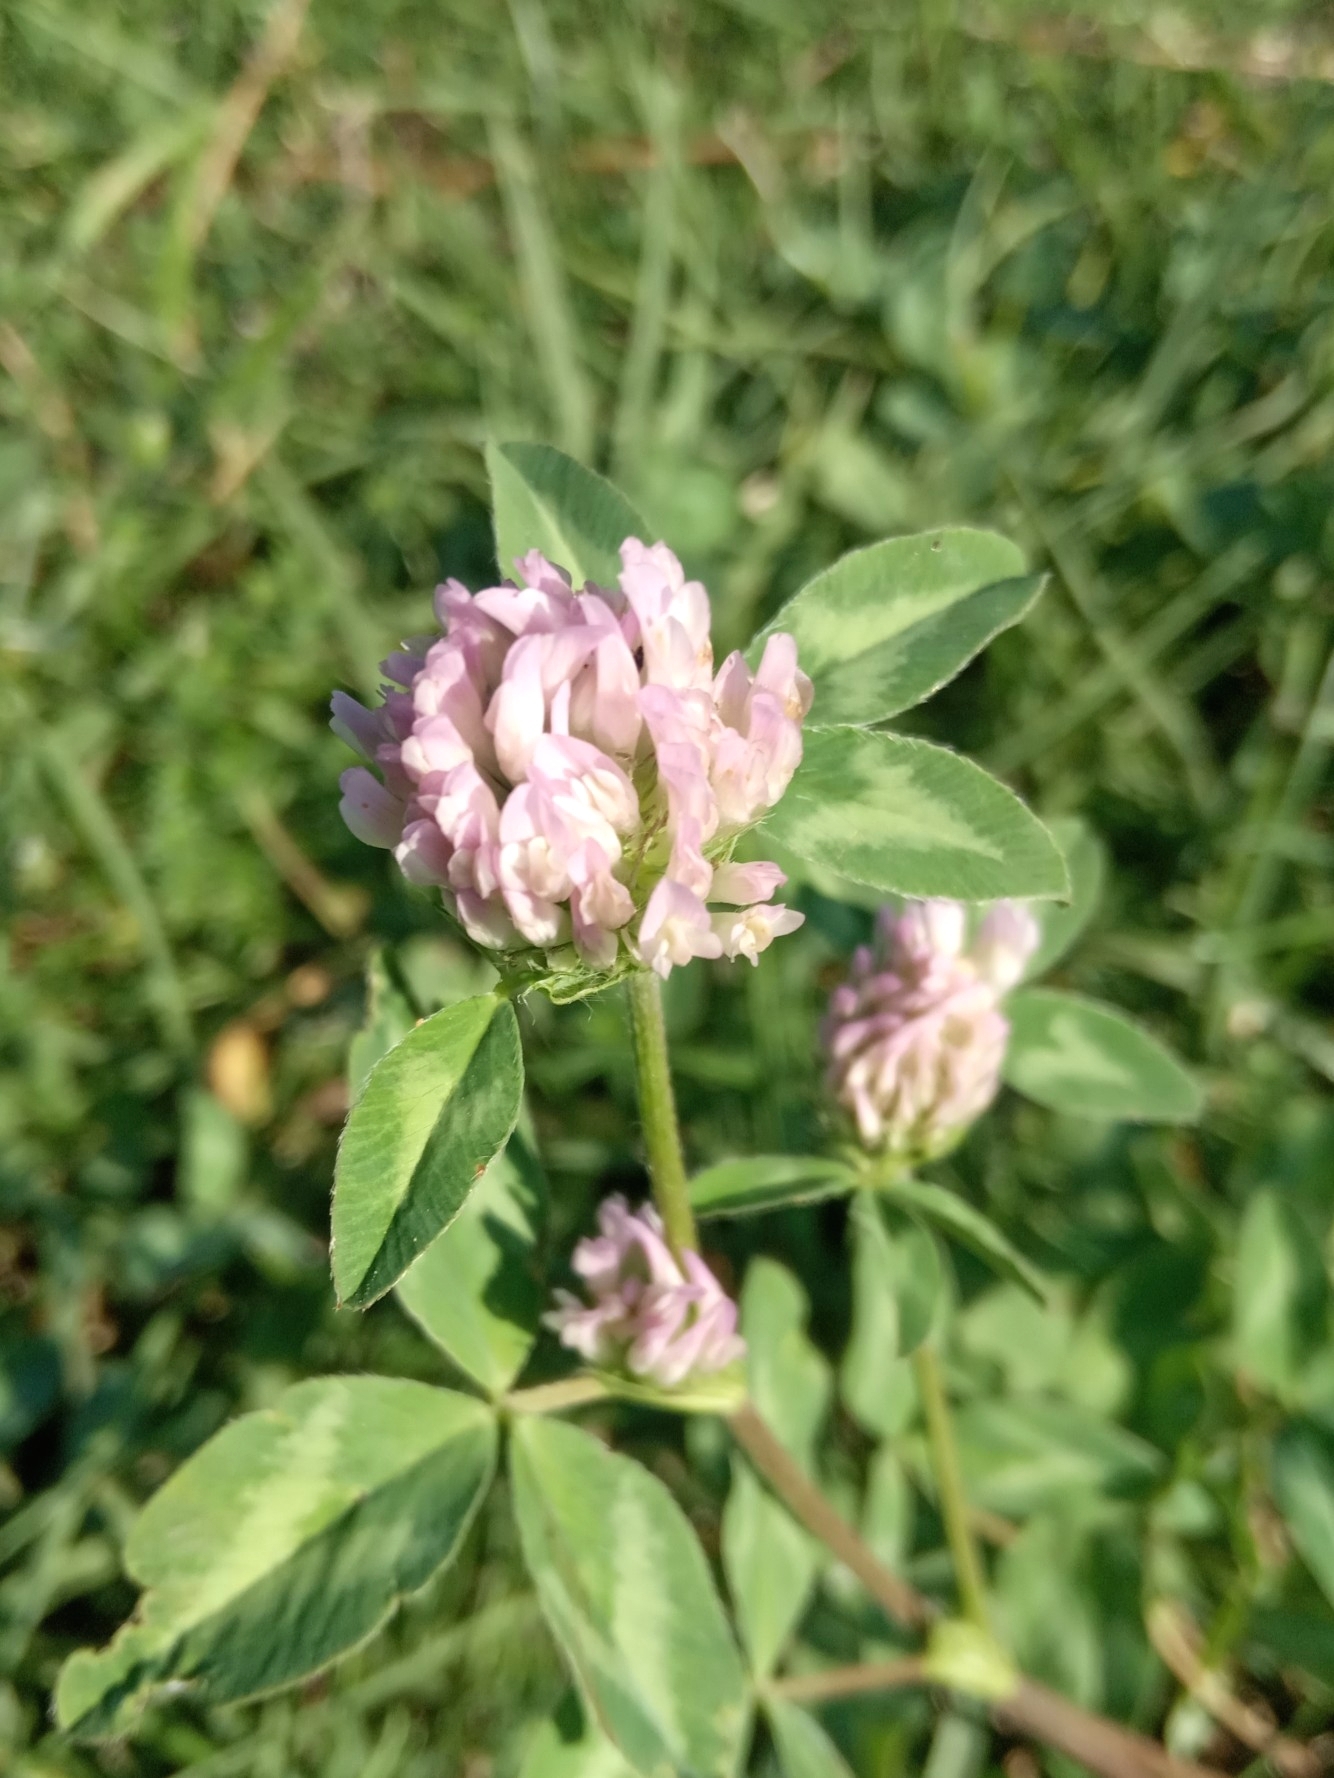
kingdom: Plantae
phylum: Tracheophyta
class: Magnoliopsida
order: Fabales
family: Fabaceae
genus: Trifolium
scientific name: Trifolium pratense
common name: Red clover
